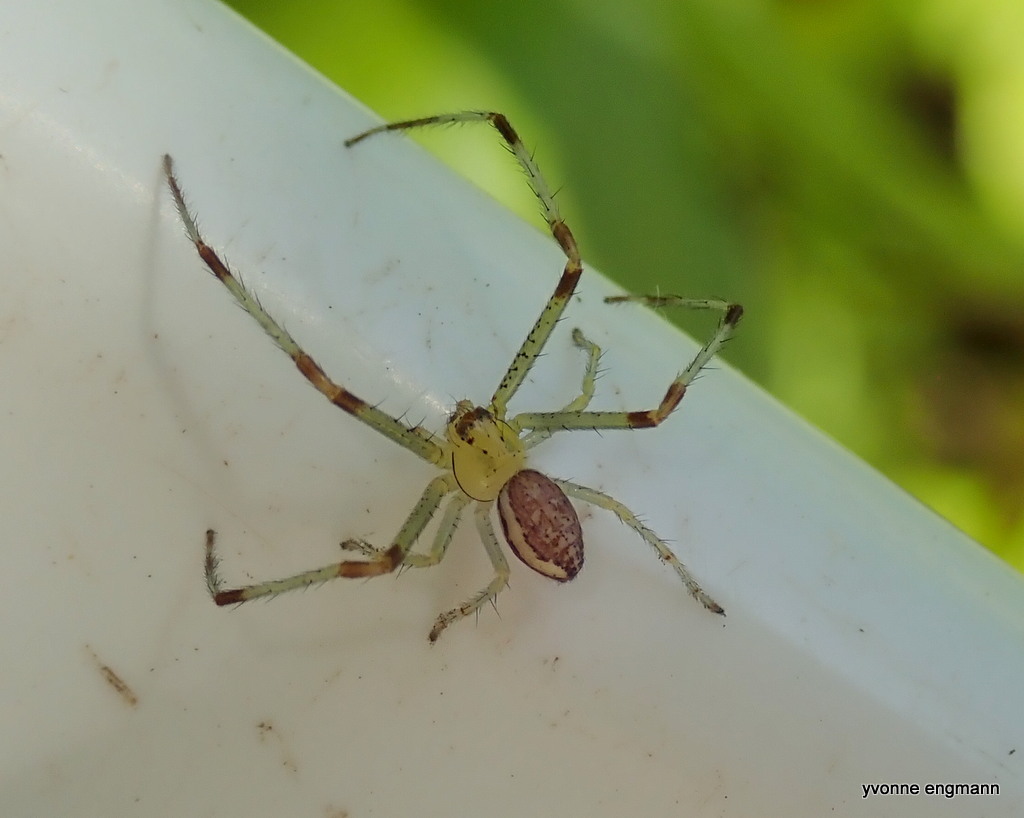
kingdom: Animalia
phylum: Arthropoda
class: Arachnida
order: Araneae
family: Thomisidae
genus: Diaea
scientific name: Diaea dorsata
